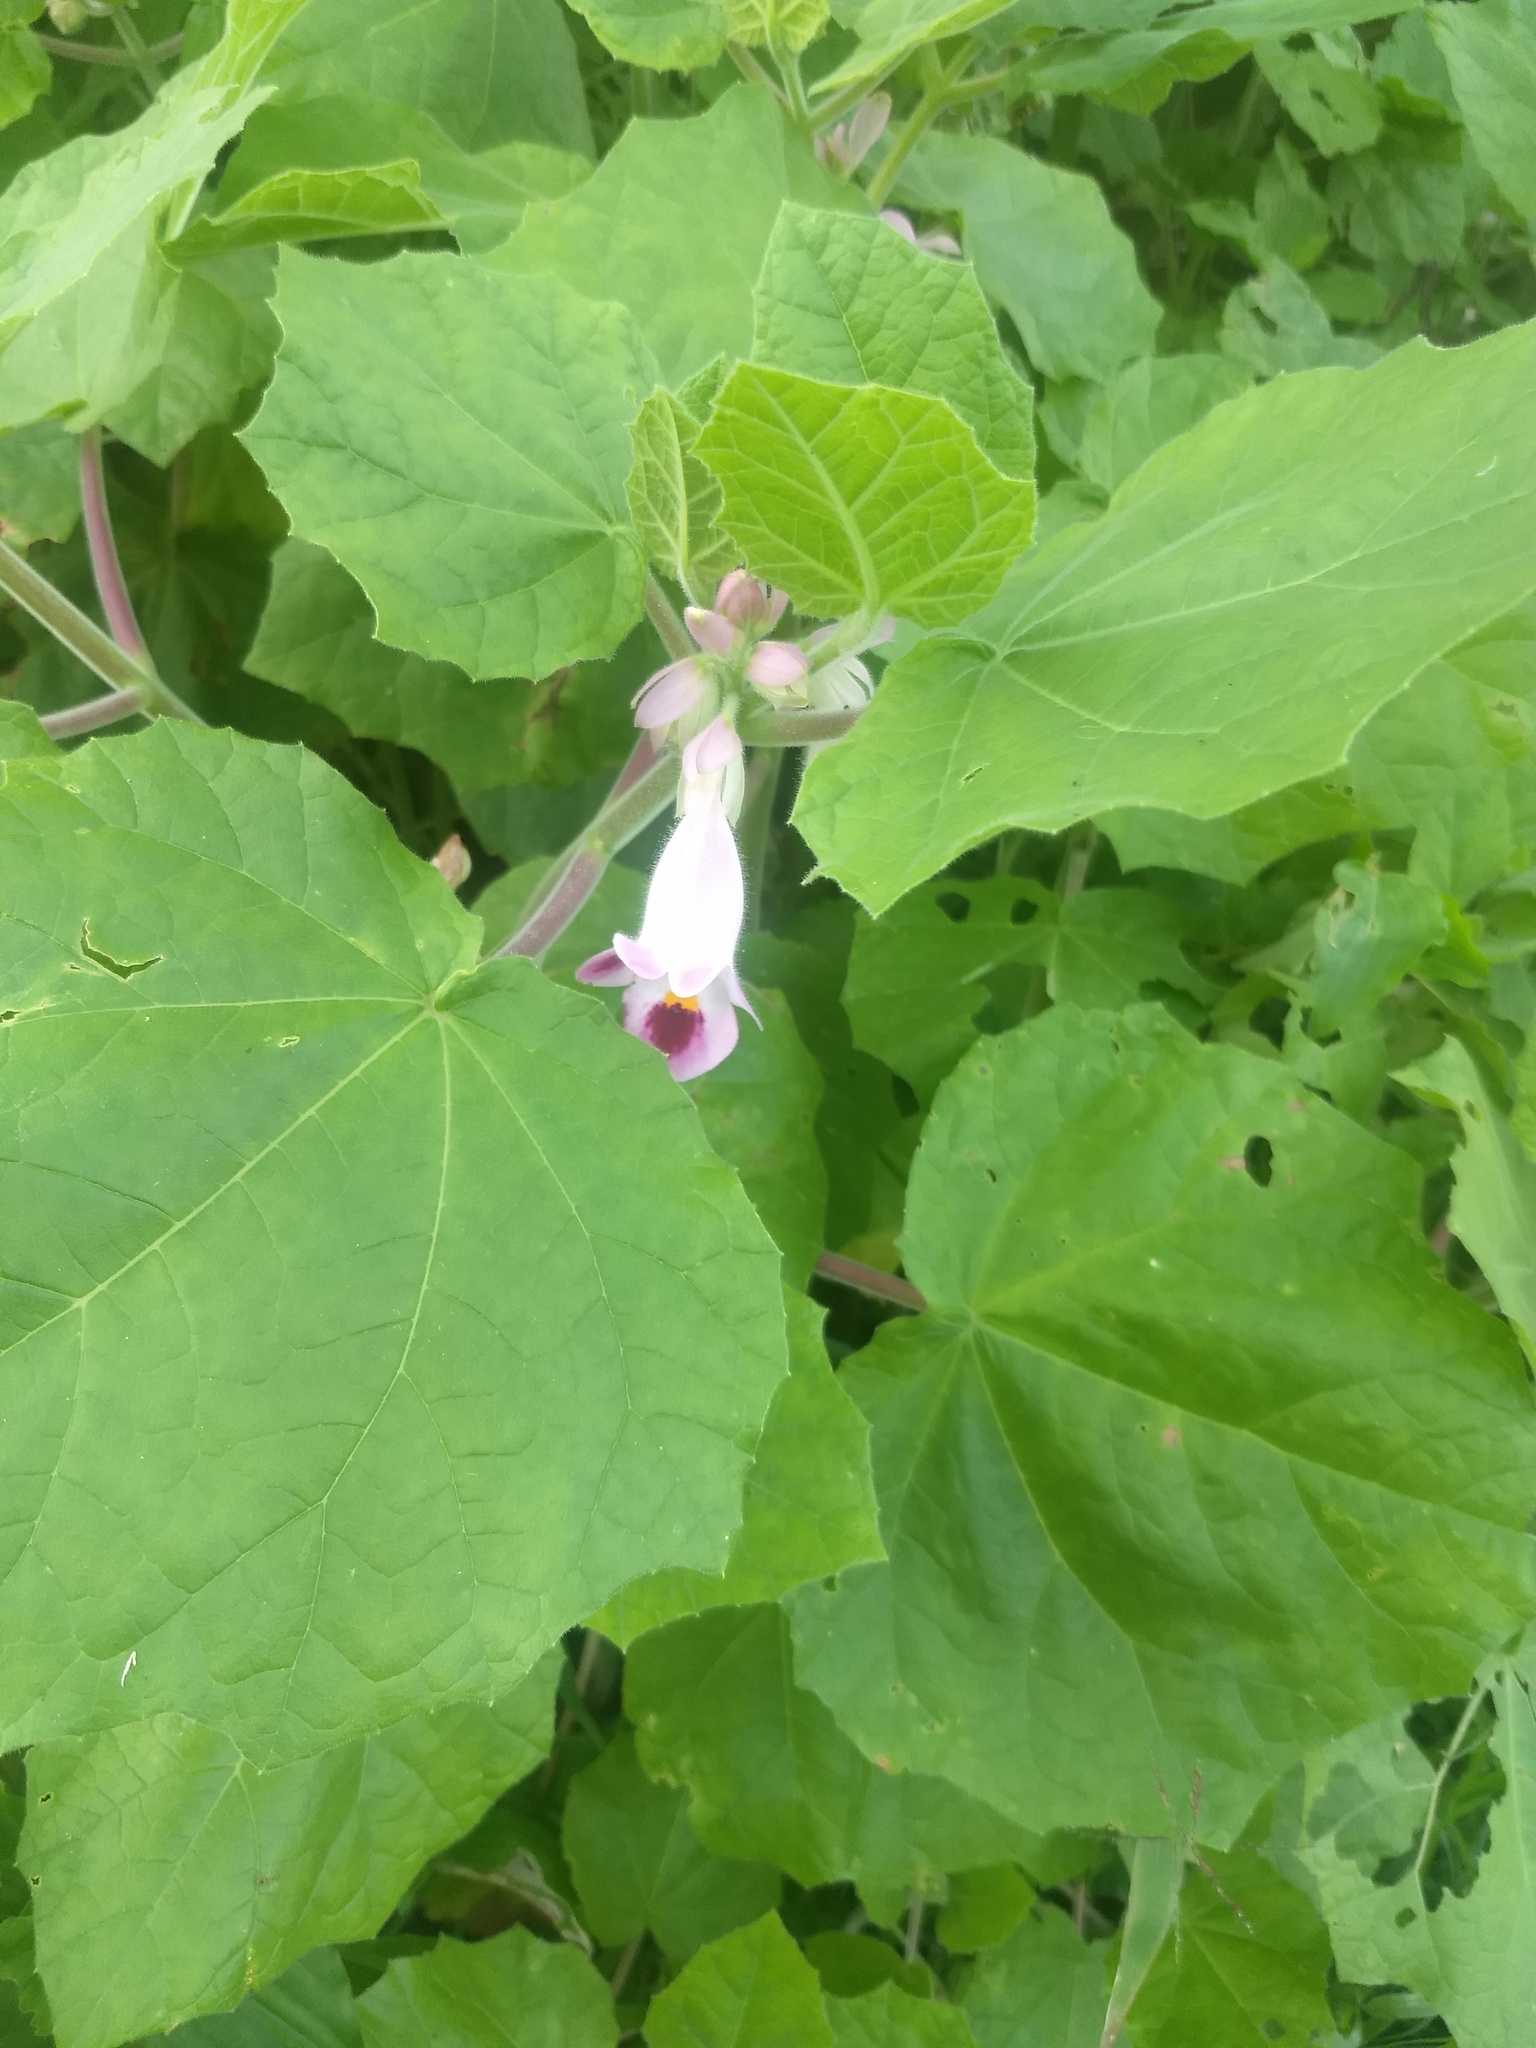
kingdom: Plantae
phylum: Tracheophyta
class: Magnoliopsida
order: Lamiales
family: Martyniaceae
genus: Martynia
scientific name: Martynia annua
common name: Tiger's-claw
